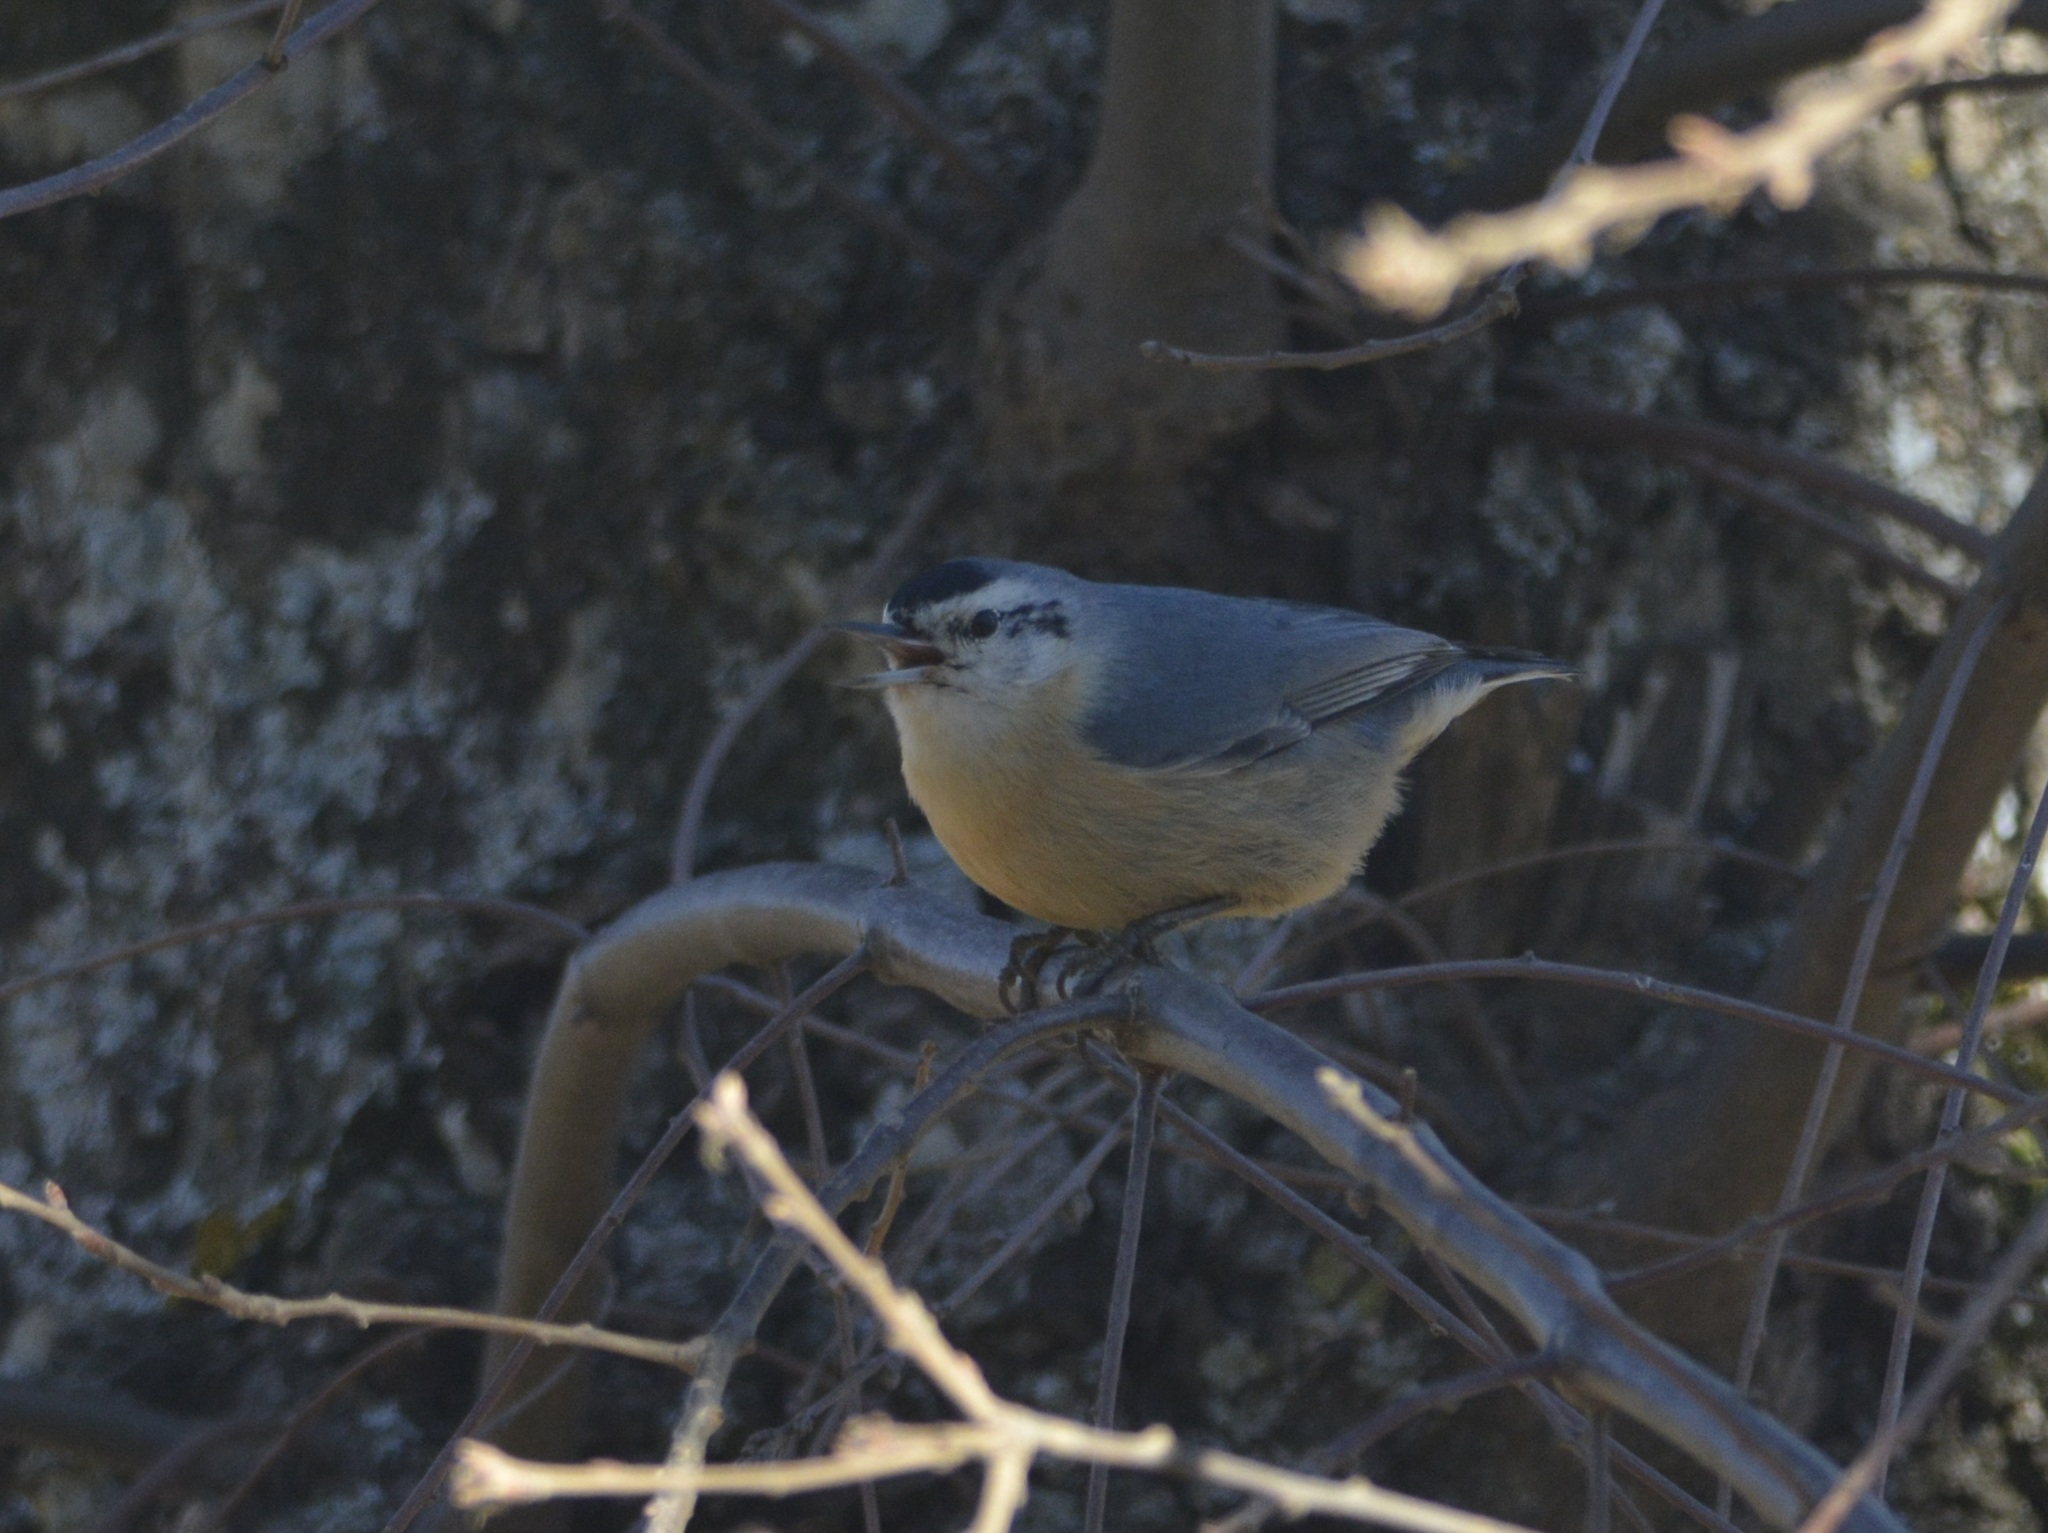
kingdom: Animalia
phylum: Chordata
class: Aves
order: Passeriformes
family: Sittidae
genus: Sitta
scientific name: Sitta ledanti
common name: Algerian nuthatch
